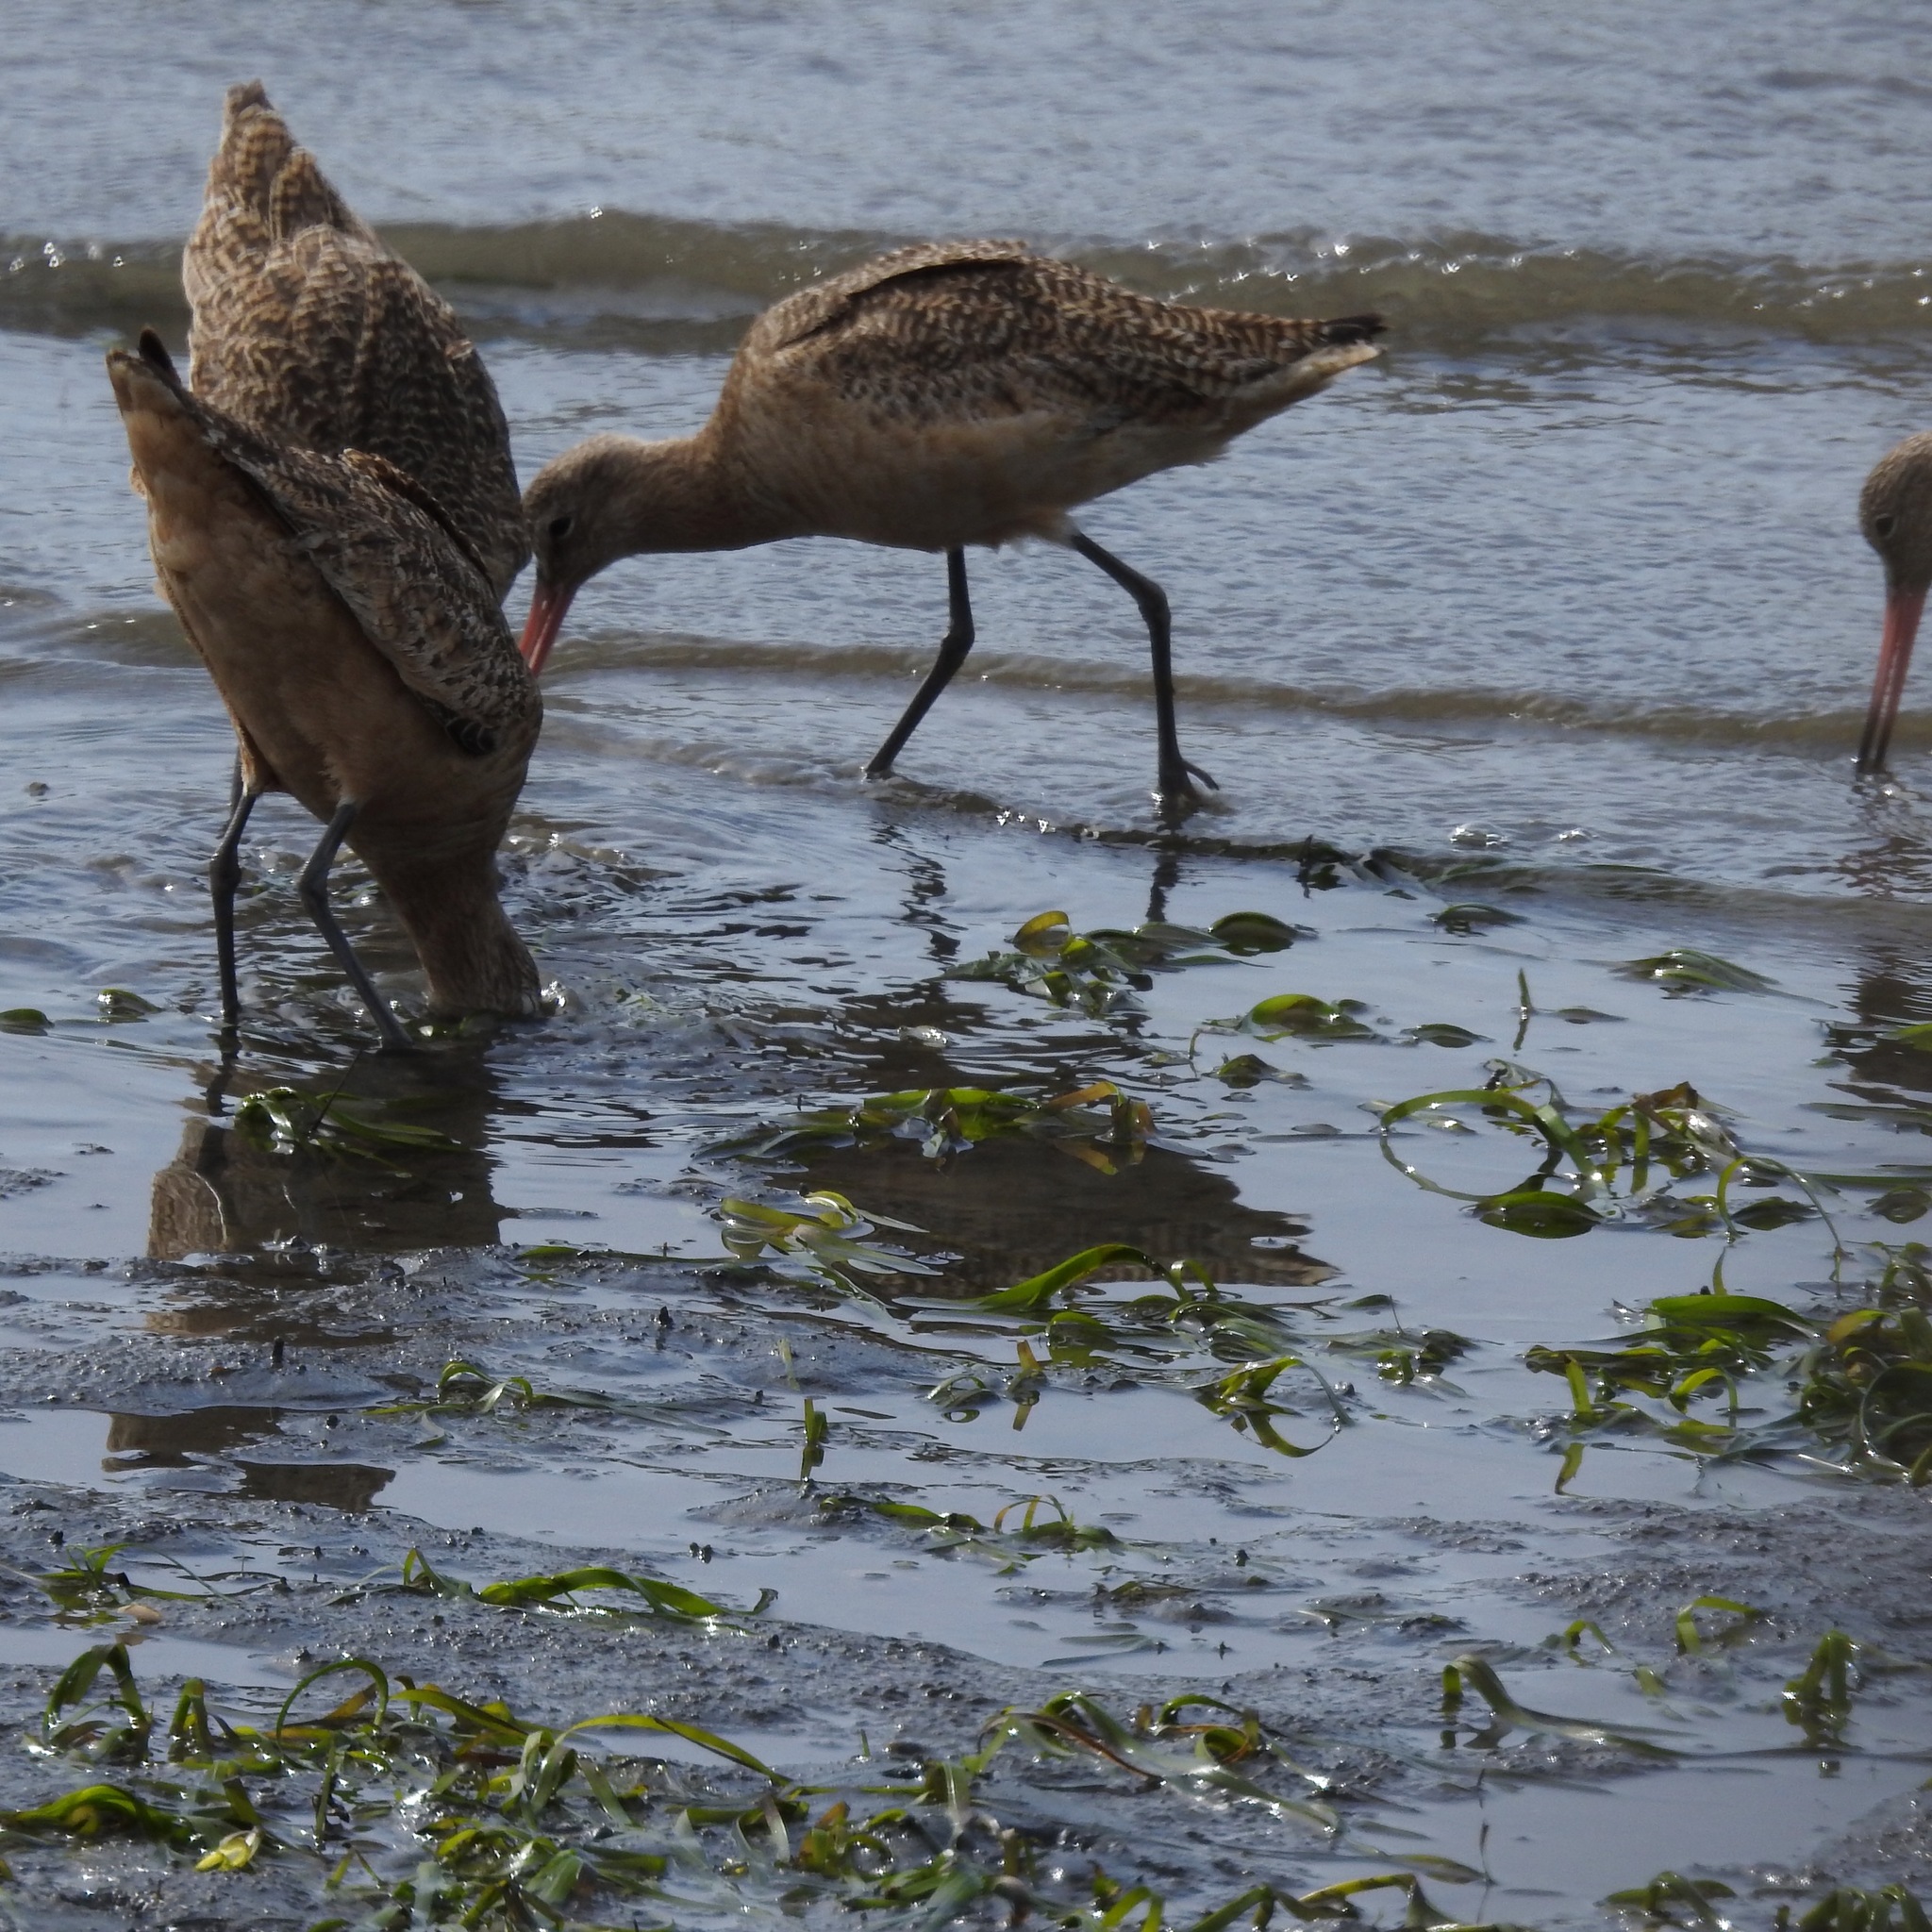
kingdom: Animalia
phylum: Chordata
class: Aves
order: Charadriiformes
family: Scolopacidae
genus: Limosa
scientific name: Limosa fedoa
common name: Marbled godwit
